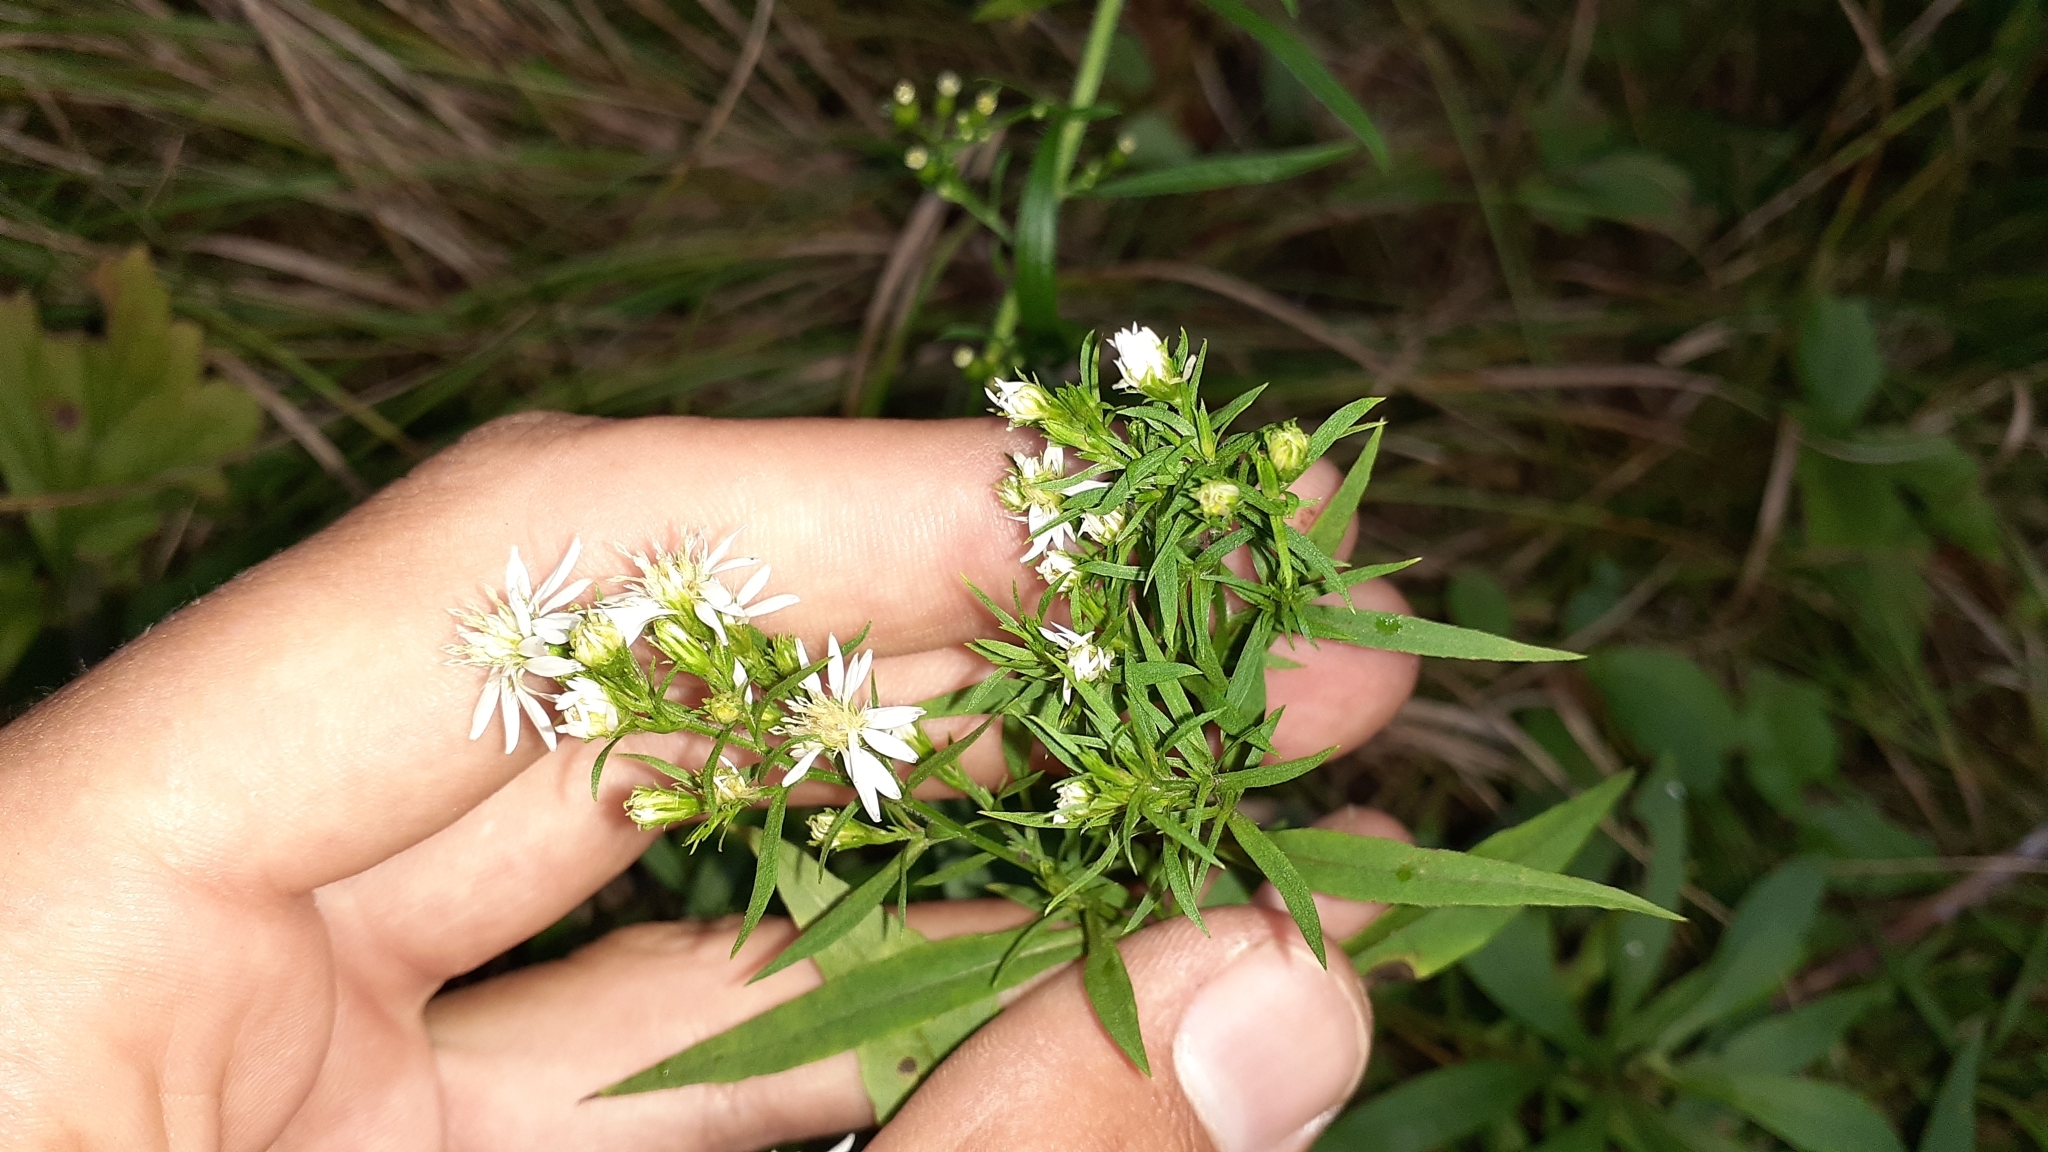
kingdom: Plantae
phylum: Tracheophyta
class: Magnoliopsida
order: Asterales
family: Asteraceae
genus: Symphyotrichum
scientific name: Symphyotrichum urophyllum
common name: Arrow-leaved aster
